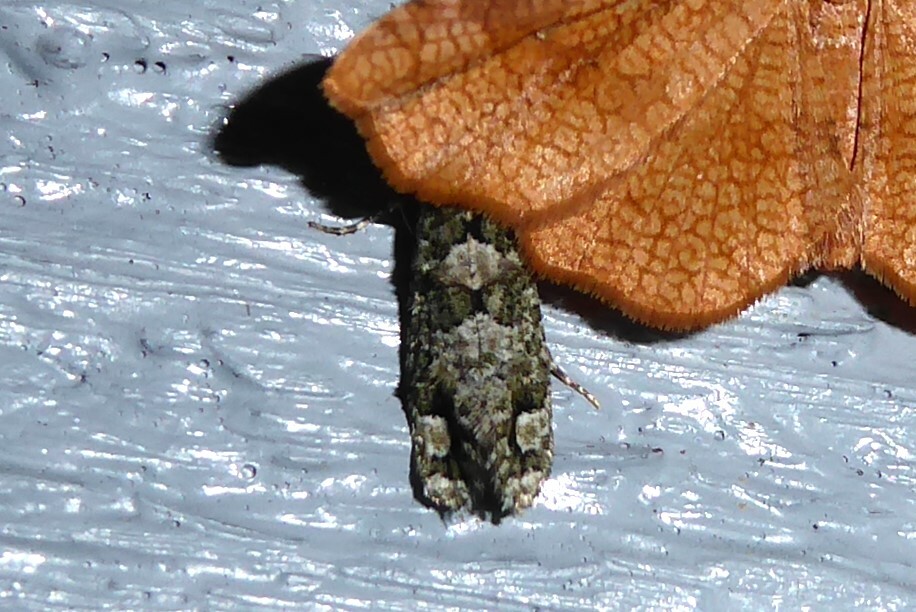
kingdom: Animalia
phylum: Arthropoda
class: Insecta
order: Lepidoptera
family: Tineidae
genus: Lysiphragma
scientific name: Lysiphragma howesii
